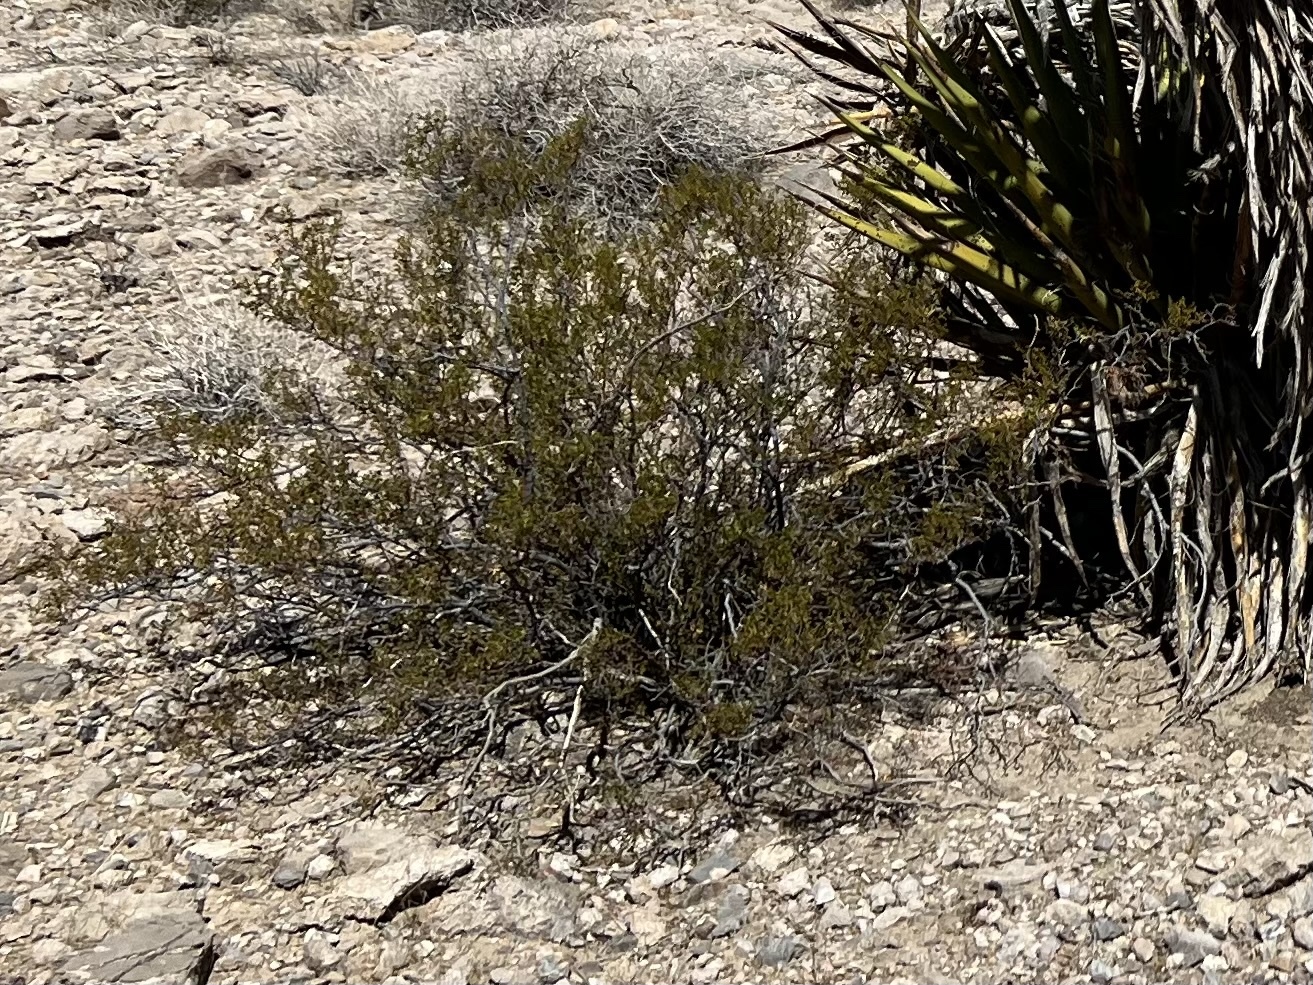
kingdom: Plantae
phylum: Tracheophyta
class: Magnoliopsida
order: Zygophyllales
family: Zygophyllaceae
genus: Larrea
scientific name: Larrea tridentata
